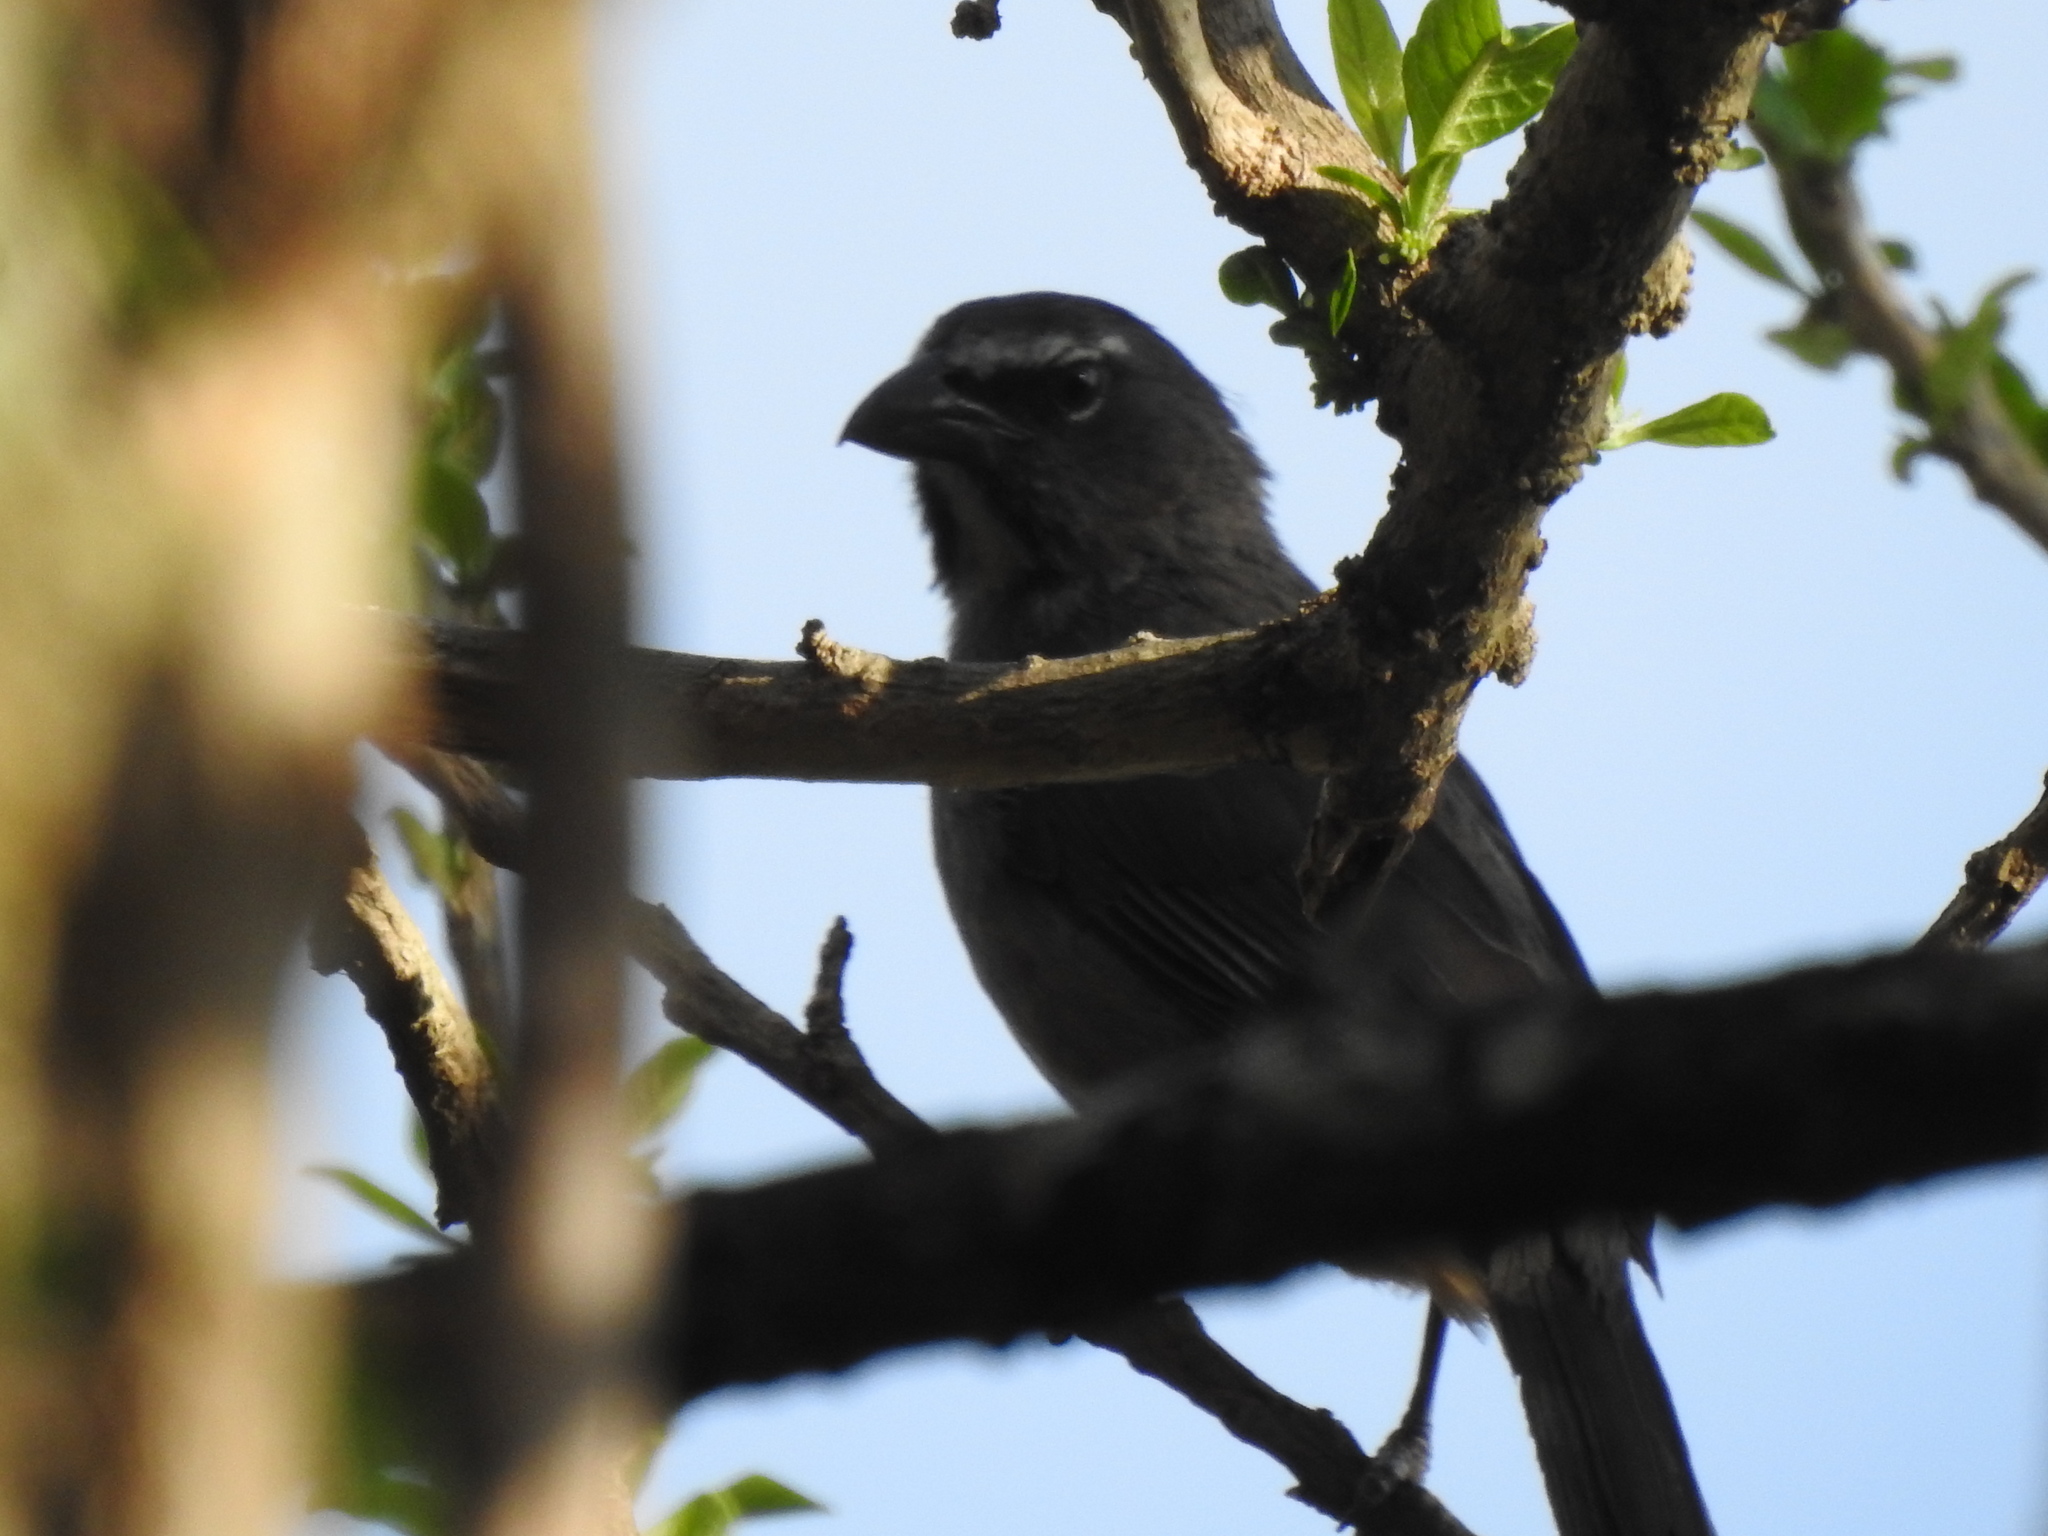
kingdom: Animalia
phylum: Chordata
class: Aves
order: Passeriformes
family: Thraupidae
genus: Saltator
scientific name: Saltator grandis
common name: Cinnamon-bellied saltator
